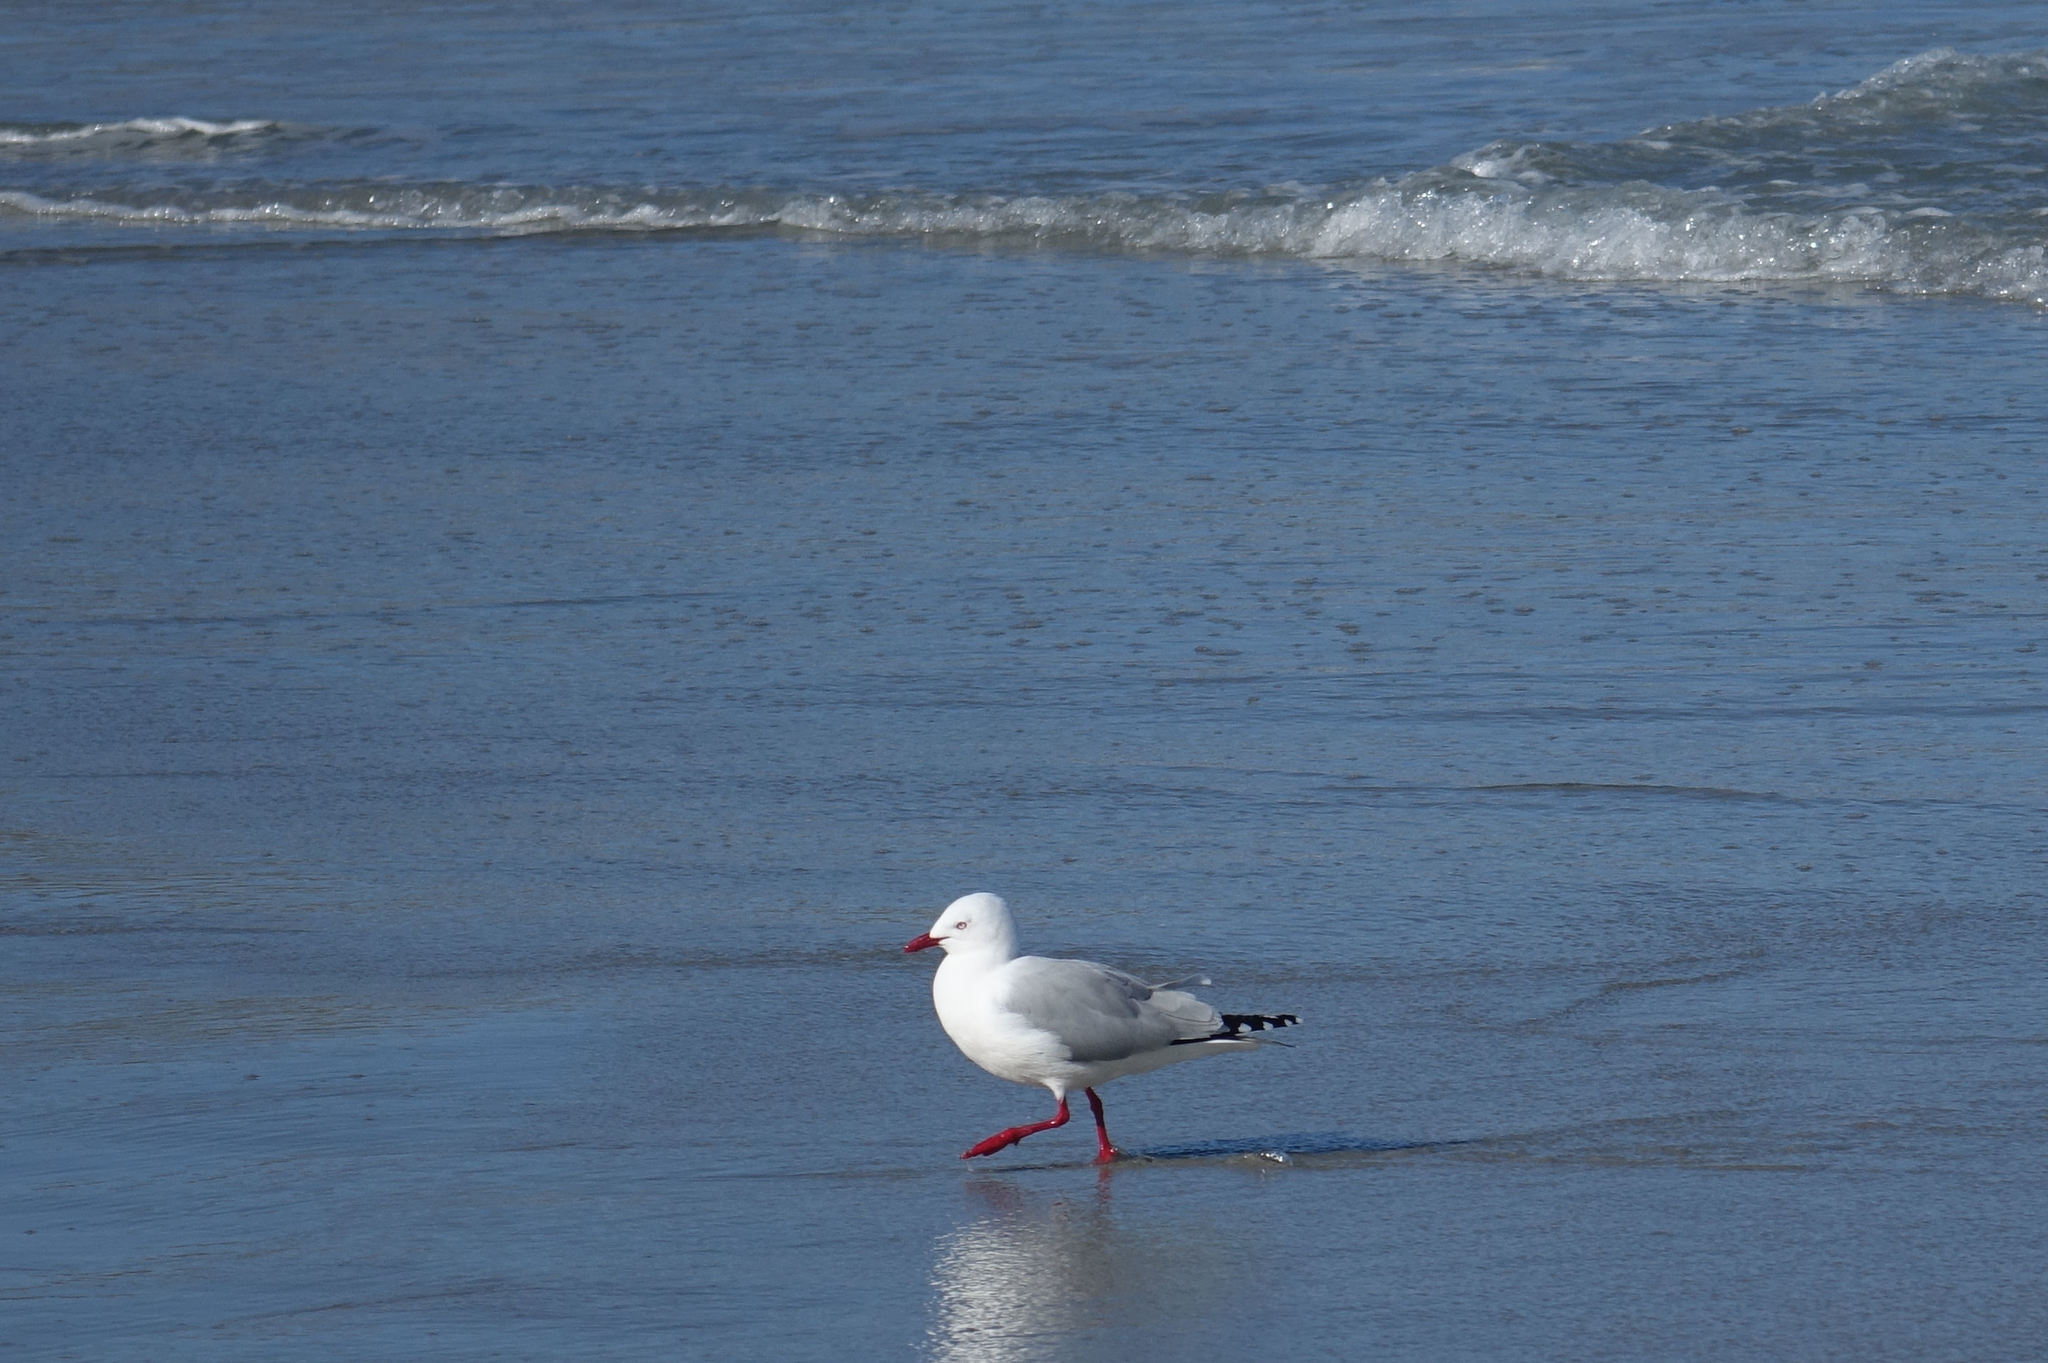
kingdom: Animalia
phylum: Chordata
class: Aves
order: Charadriiformes
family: Laridae
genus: Chroicocephalus
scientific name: Chroicocephalus novaehollandiae
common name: Silver gull
